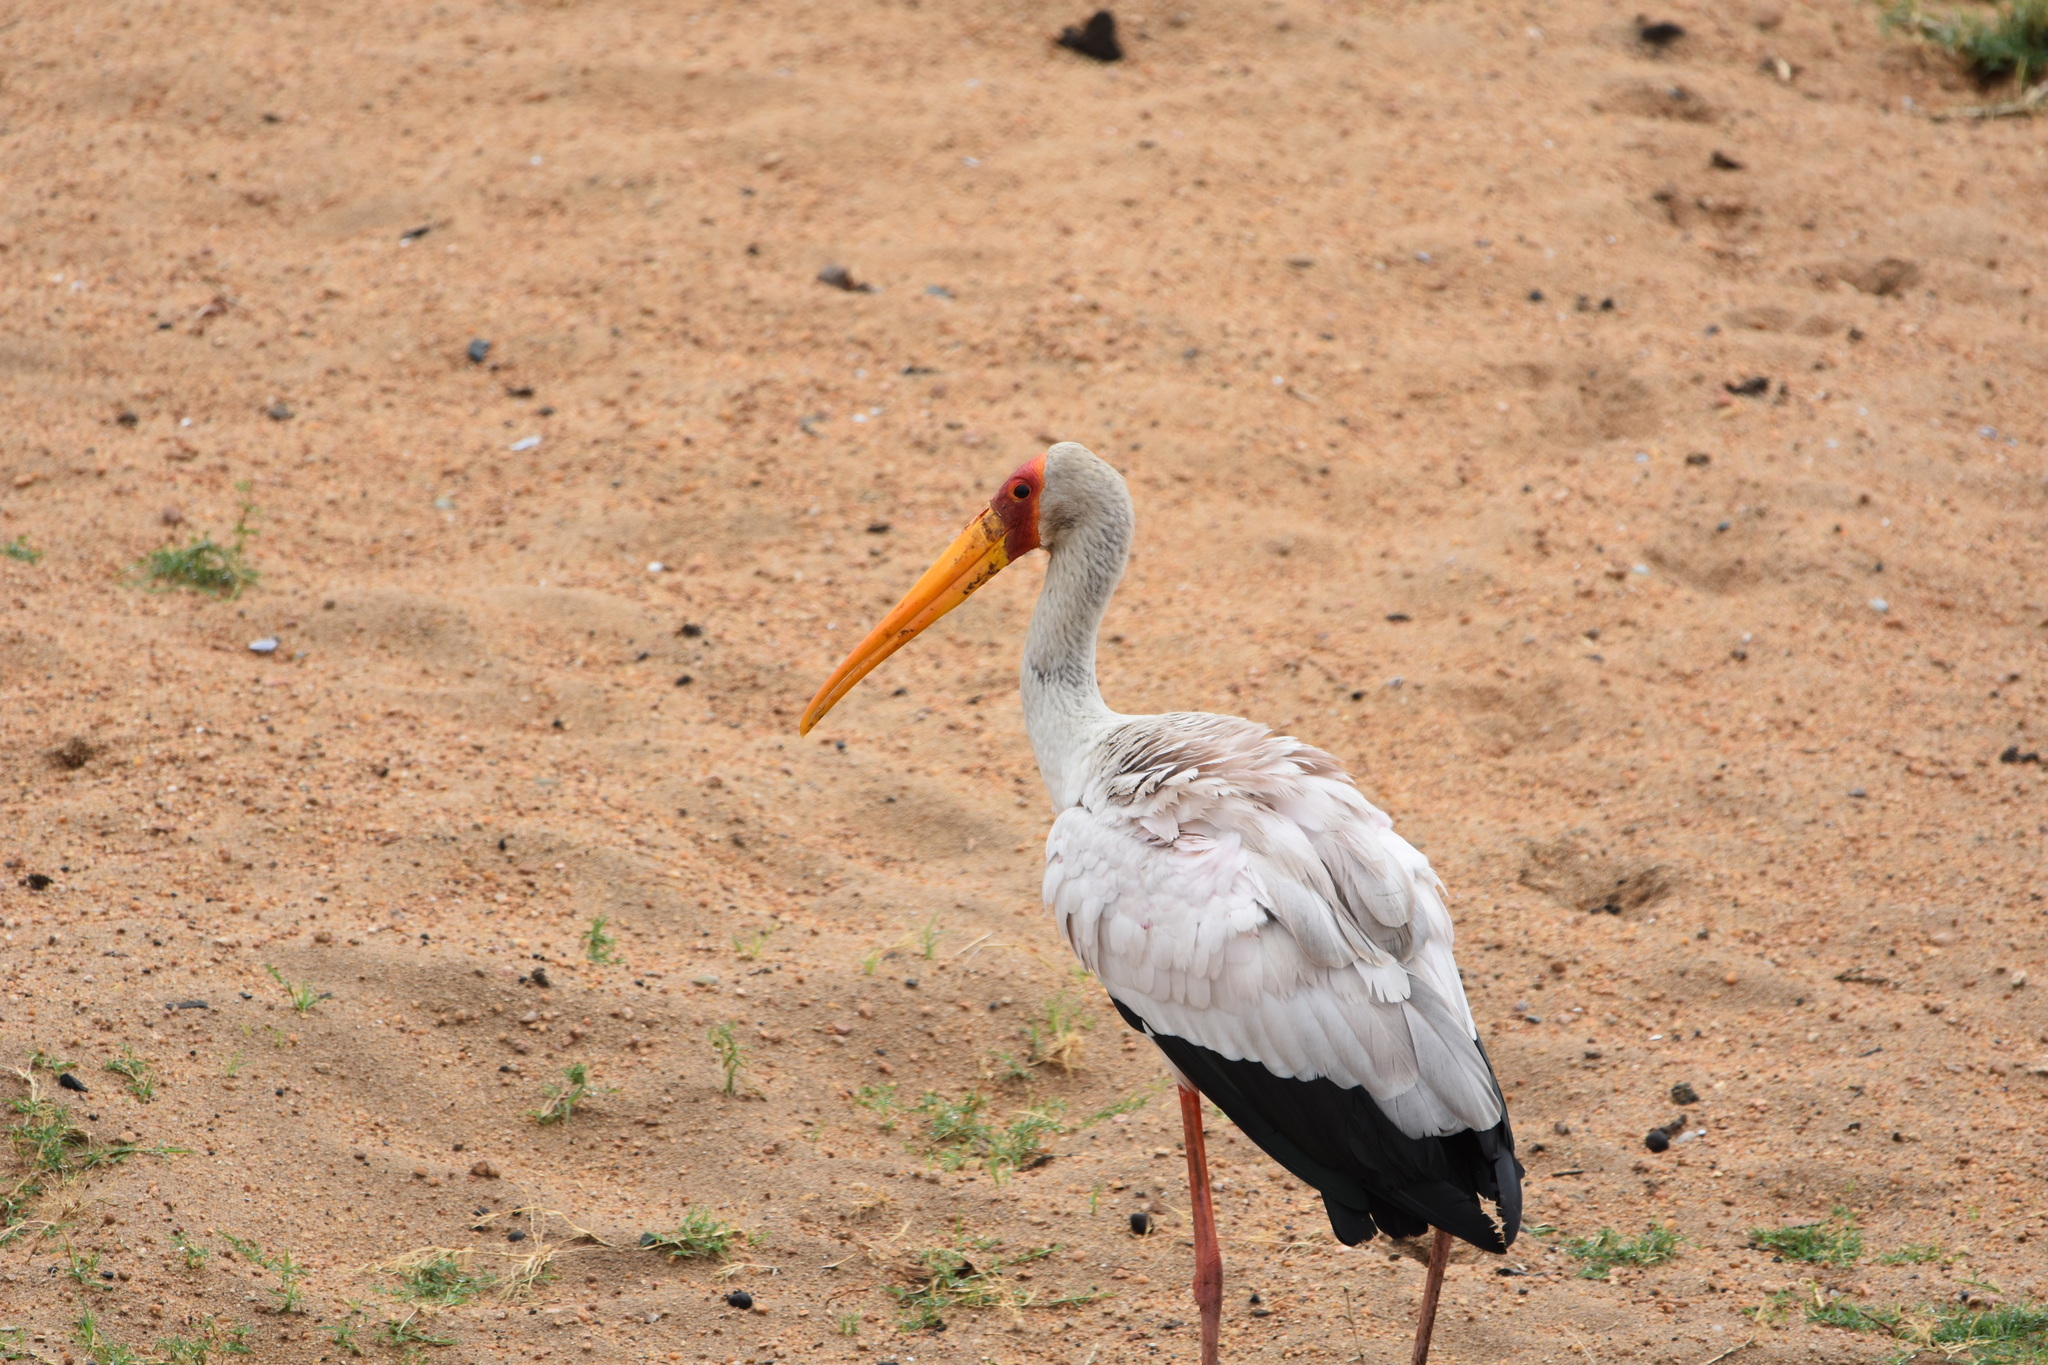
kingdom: Animalia
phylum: Chordata
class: Aves
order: Ciconiiformes
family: Ciconiidae
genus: Mycteria
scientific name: Mycteria ibis
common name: Yellow-billed stork
